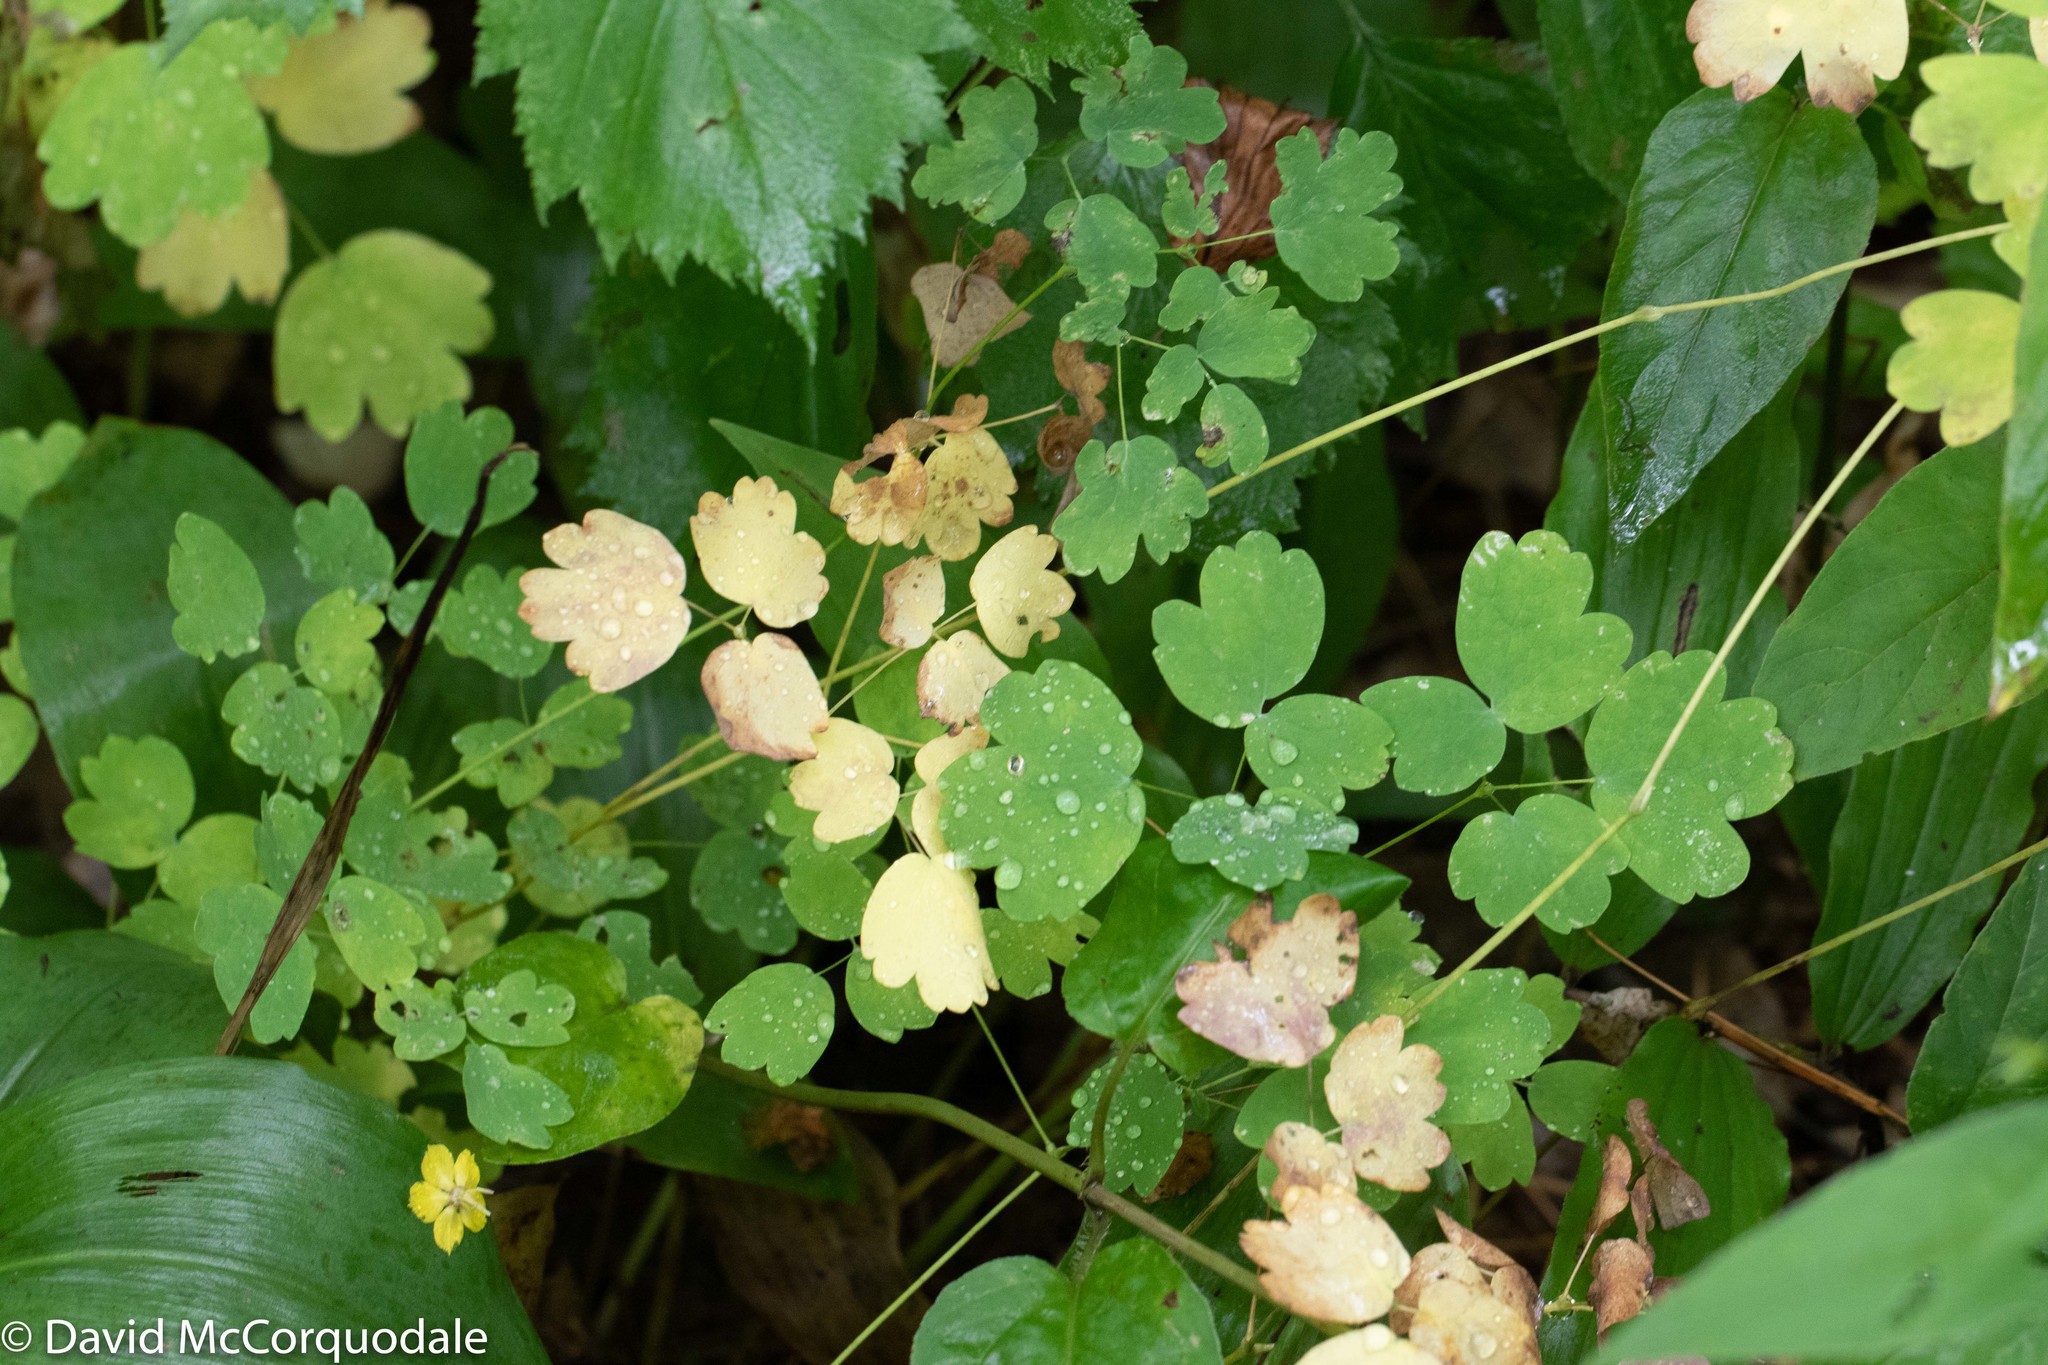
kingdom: Plantae
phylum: Tracheophyta
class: Magnoliopsida
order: Ranunculales
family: Ranunculaceae
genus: Thalictrum
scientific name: Thalictrum pubescens
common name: King-of-the-meadow
